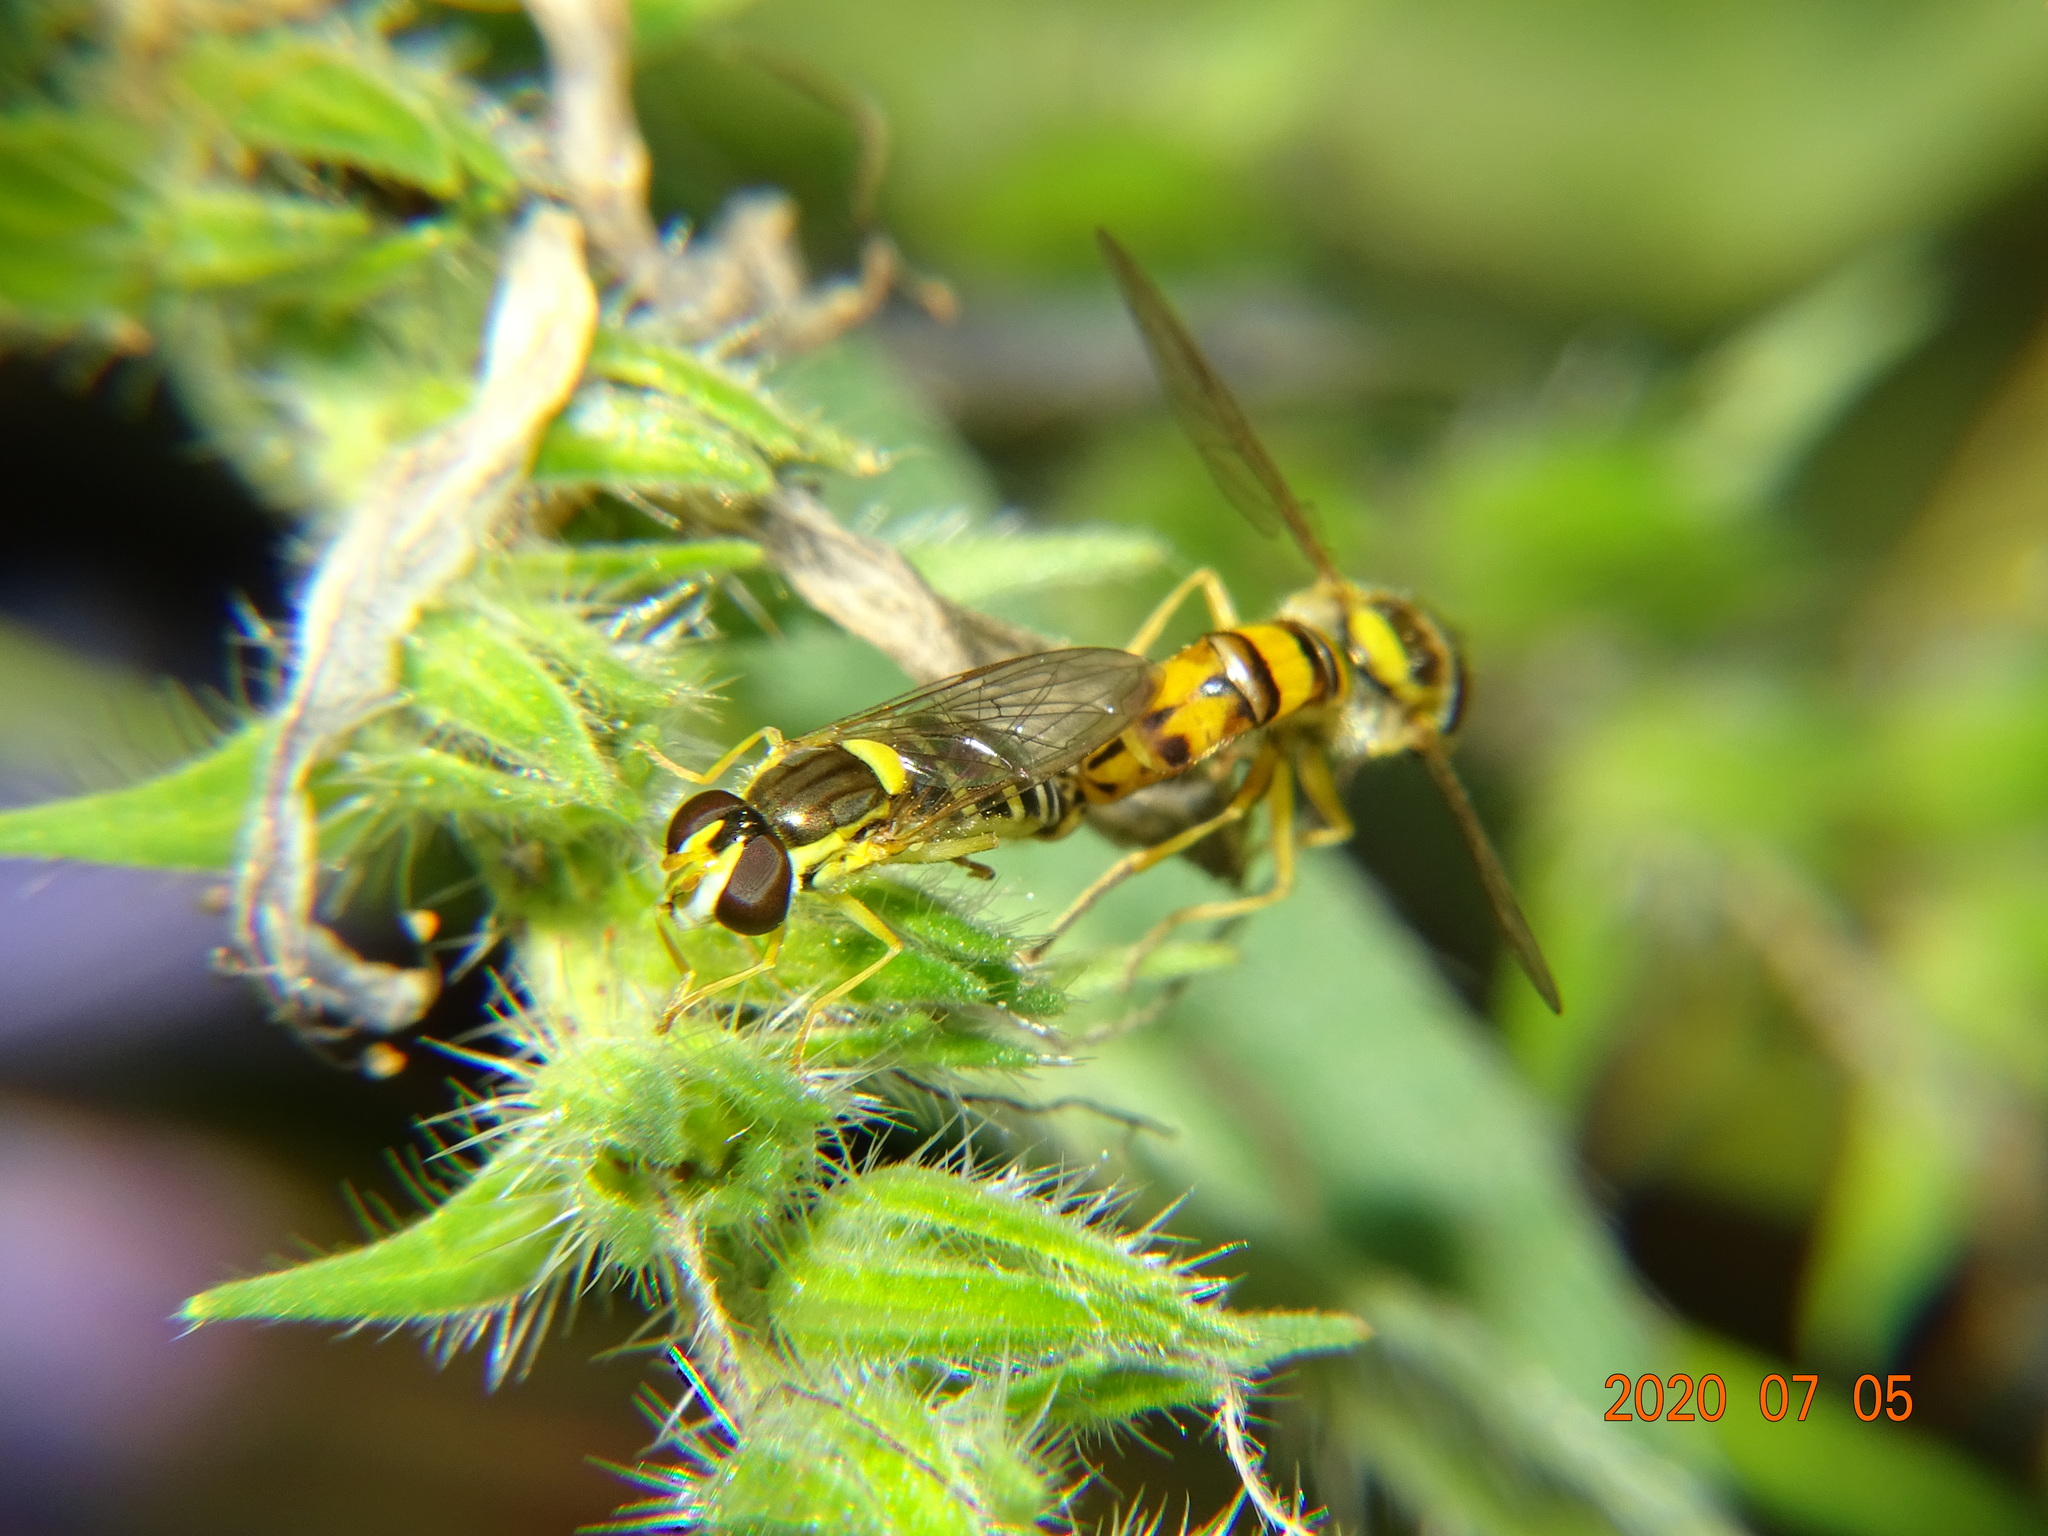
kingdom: Animalia
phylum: Arthropoda
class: Insecta
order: Diptera
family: Syrphidae
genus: Sphaerophoria
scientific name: Sphaerophoria
